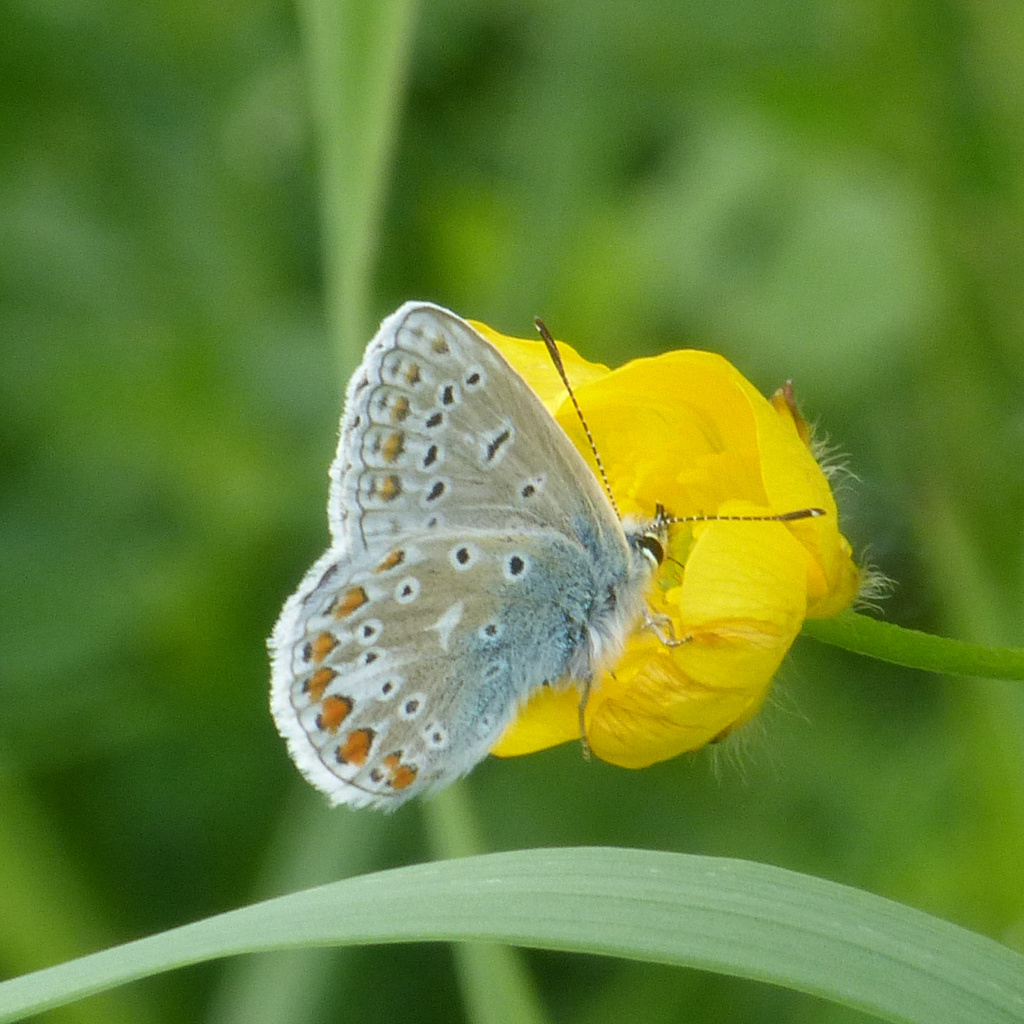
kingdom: Animalia
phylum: Arthropoda
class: Insecta
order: Lepidoptera
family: Lycaenidae
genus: Polyommatus
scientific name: Polyommatus icarus
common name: Common blue
